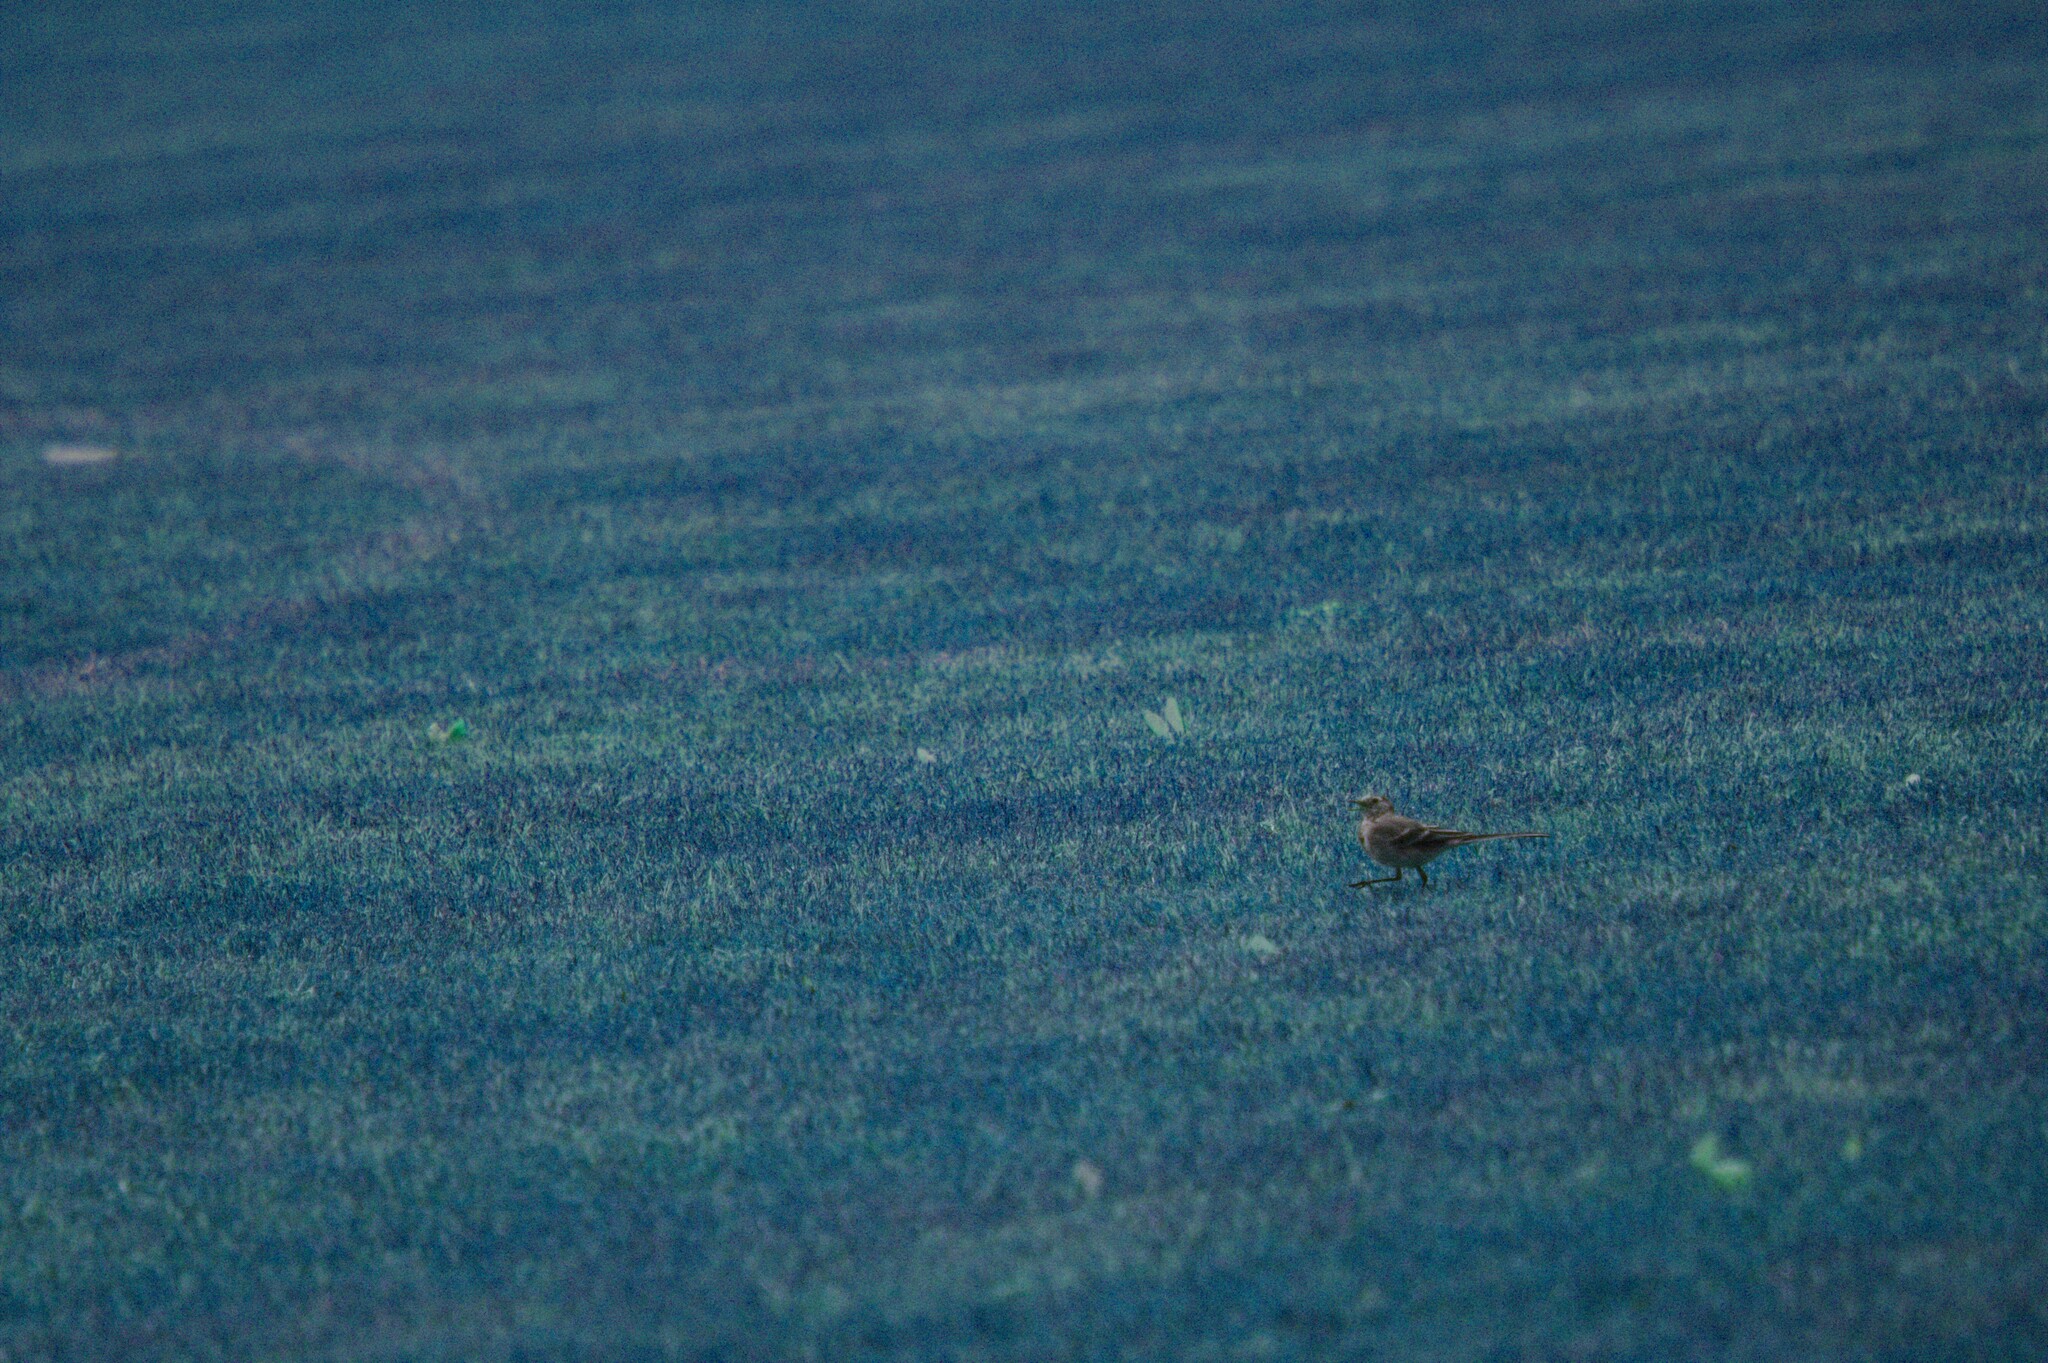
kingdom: Animalia
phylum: Chordata
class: Aves
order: Passeriformes
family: Motacillidae
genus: Motacilla
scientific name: Motacilla alba
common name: White wagtail
